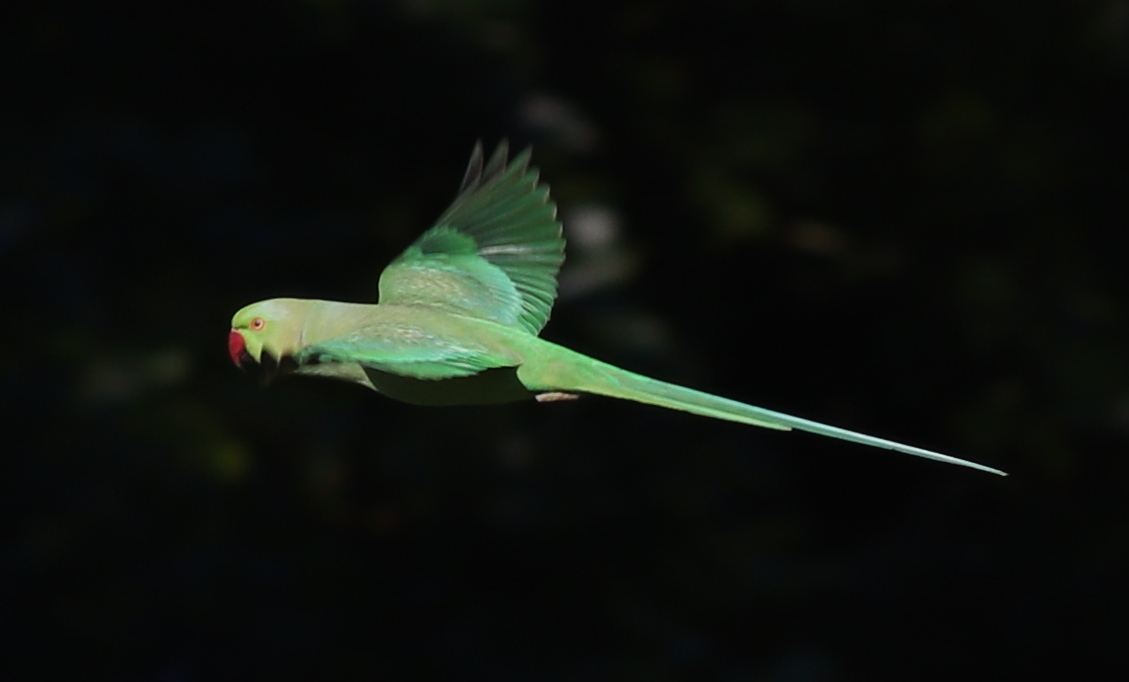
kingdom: Animalia
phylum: Chordata
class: Aves
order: Psittaciformes
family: Psittacidae
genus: Psittacula
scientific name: Psittacula krameri
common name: Rose-ringed parakeet
